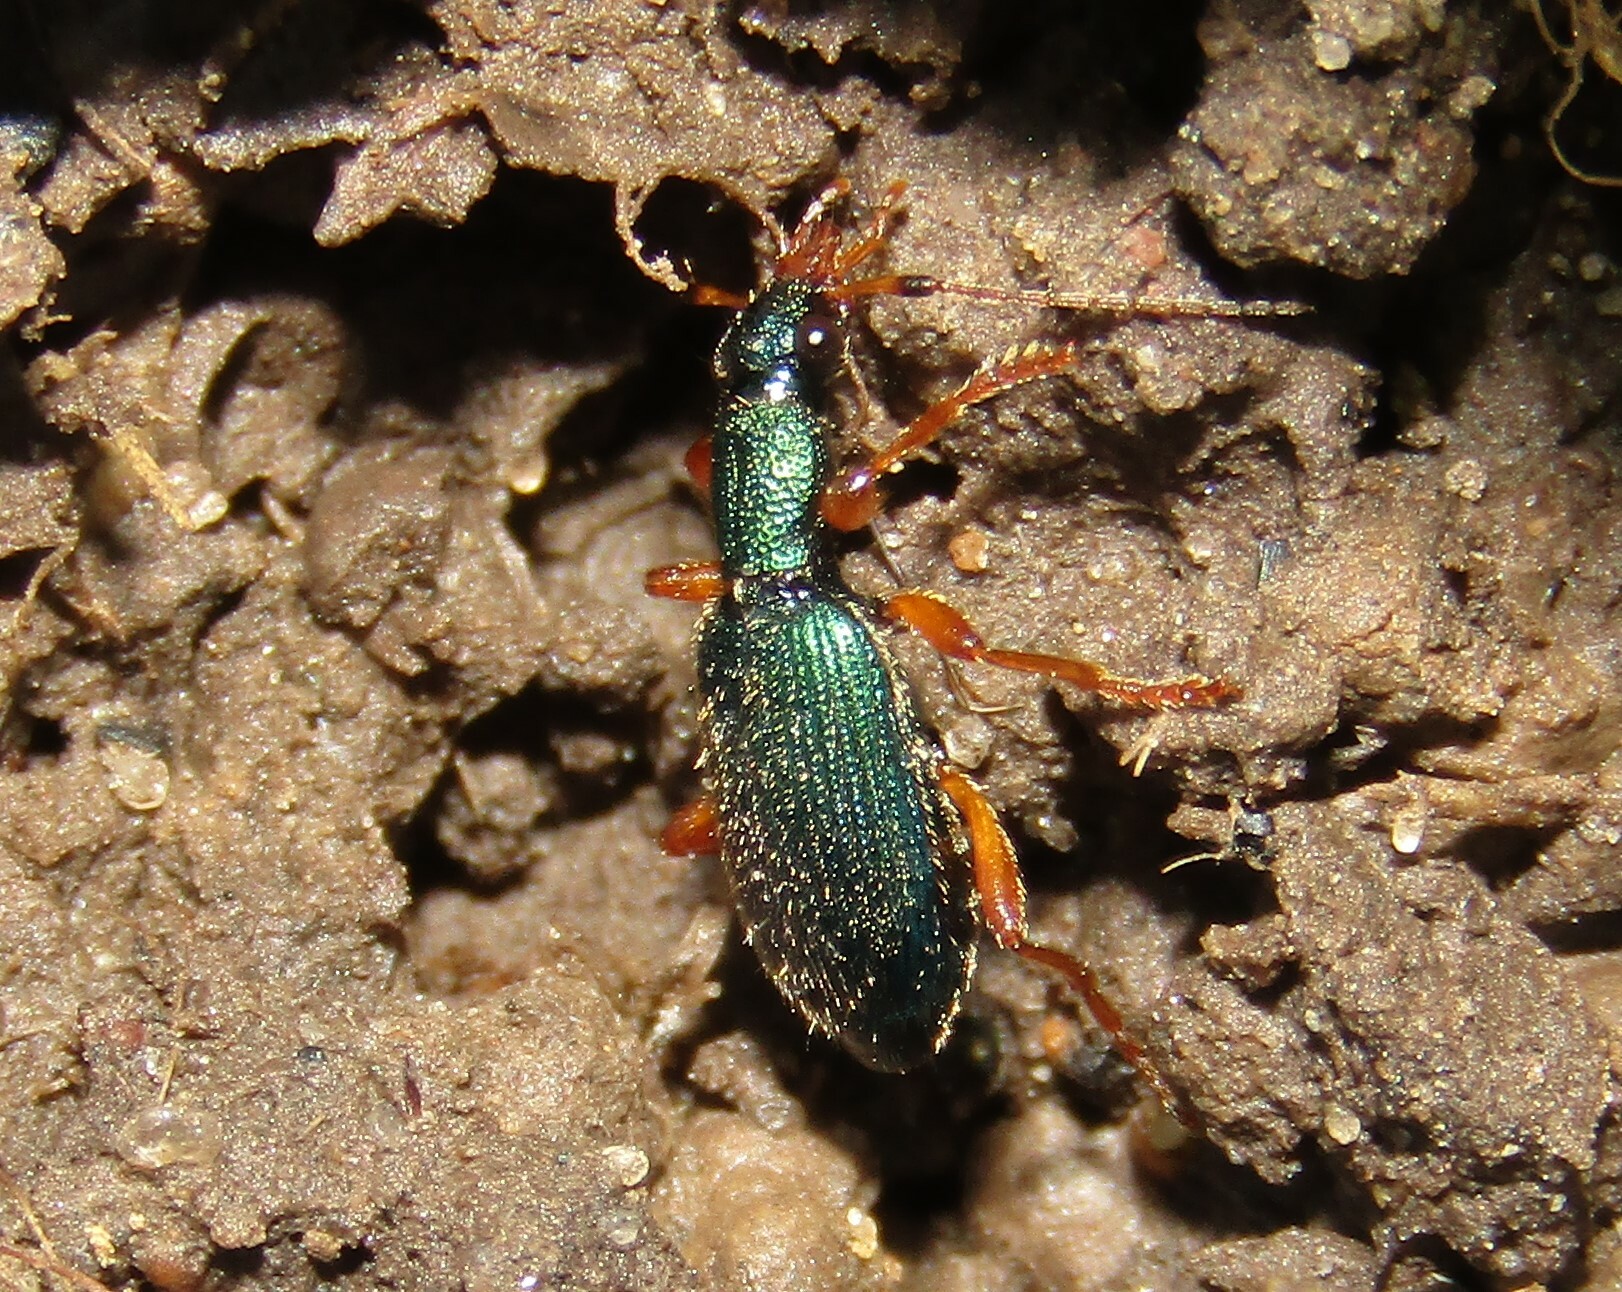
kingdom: Animalia
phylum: Arthropoda
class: Insecta
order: Coleoptera
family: Carabidae
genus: Drypta
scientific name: Drypta dentata
